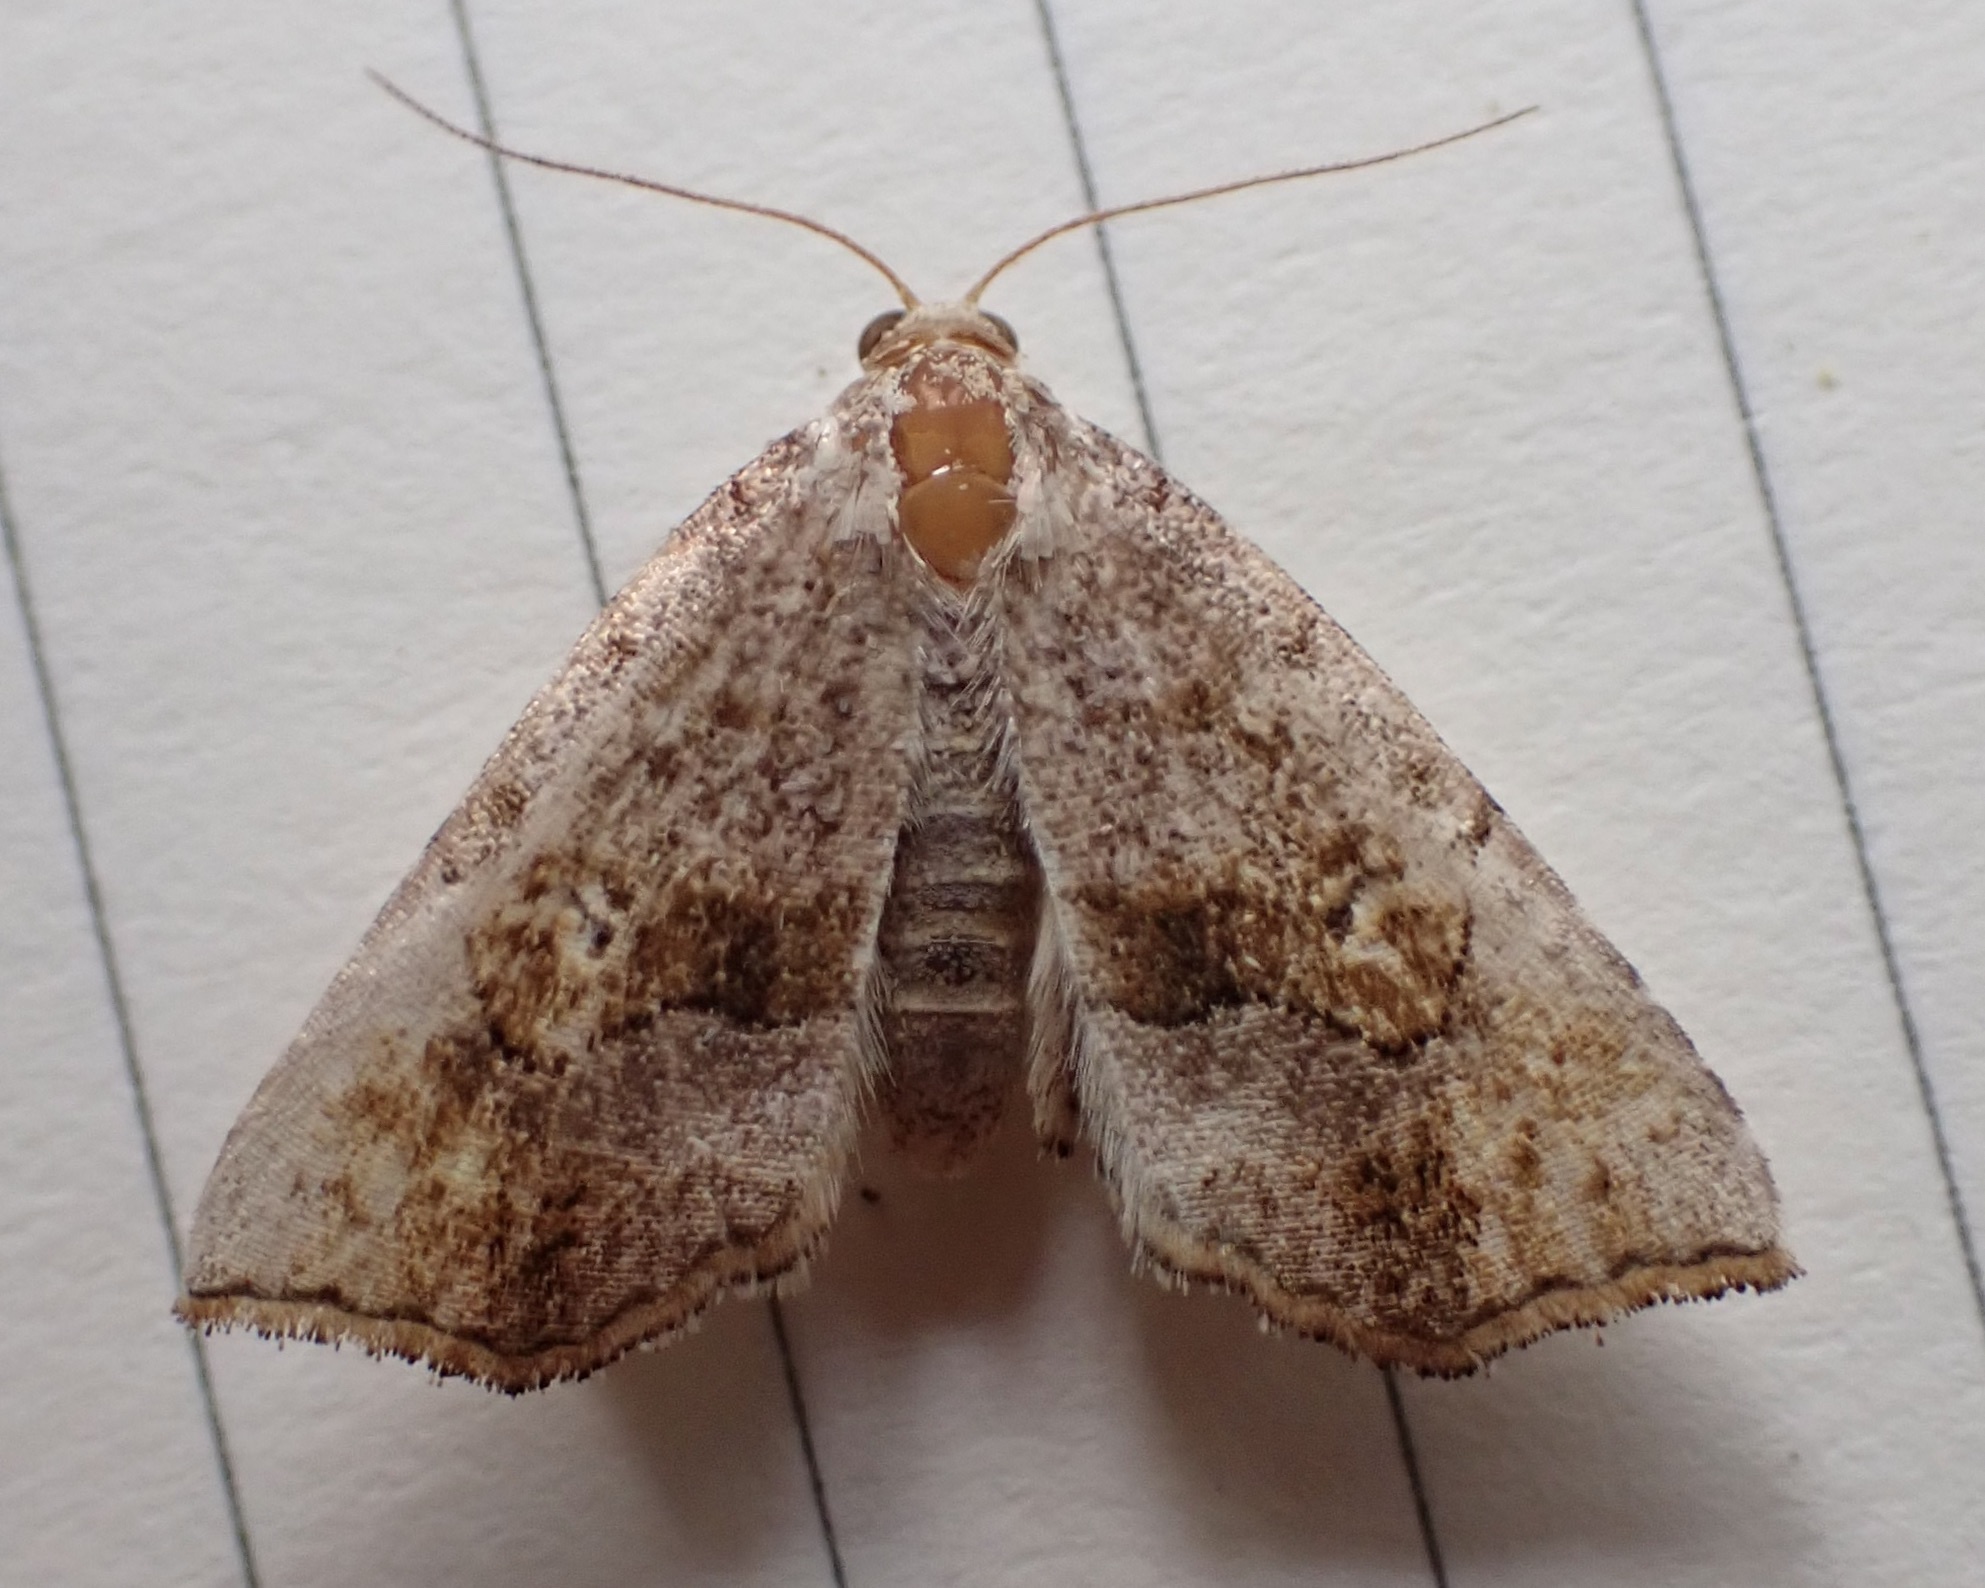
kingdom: Animalia
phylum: Arthropoda
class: Insecta
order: Lepidoptera
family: Erebidae
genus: Pangrapta
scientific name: Pangrapta decoralis
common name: Decorated owlet
